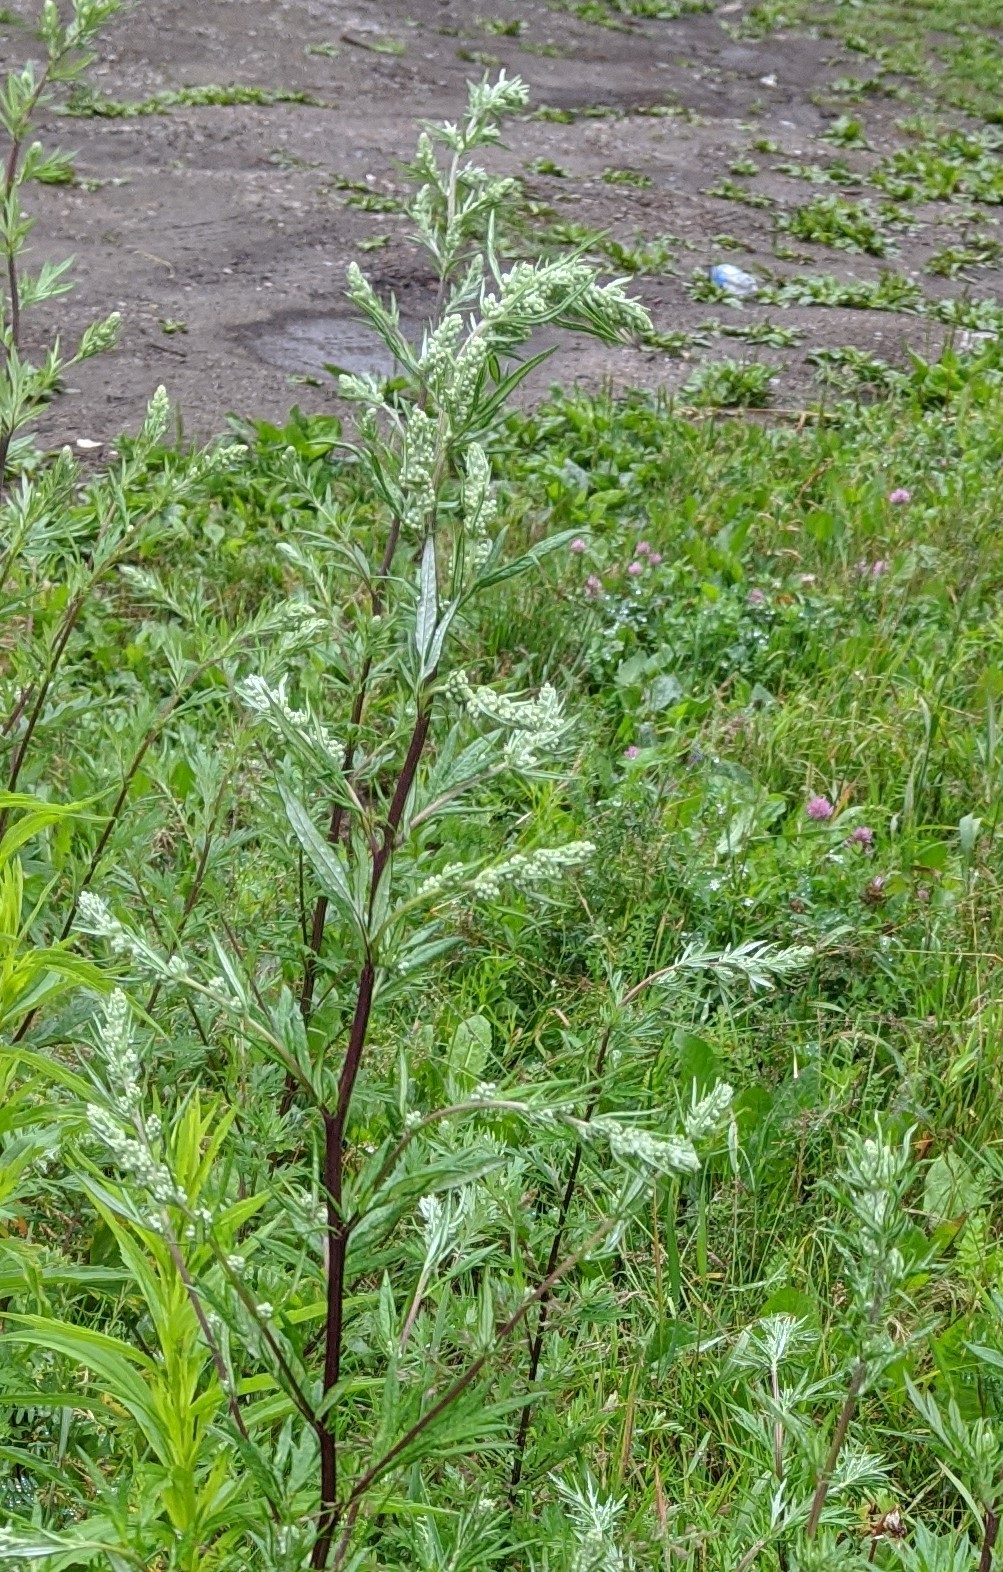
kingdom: Plantae
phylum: Tracheophyta
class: Magnoliopsida
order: Asterales
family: Asteraceae
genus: Artemisia
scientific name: Artemisia vulgaris
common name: Mugwort
